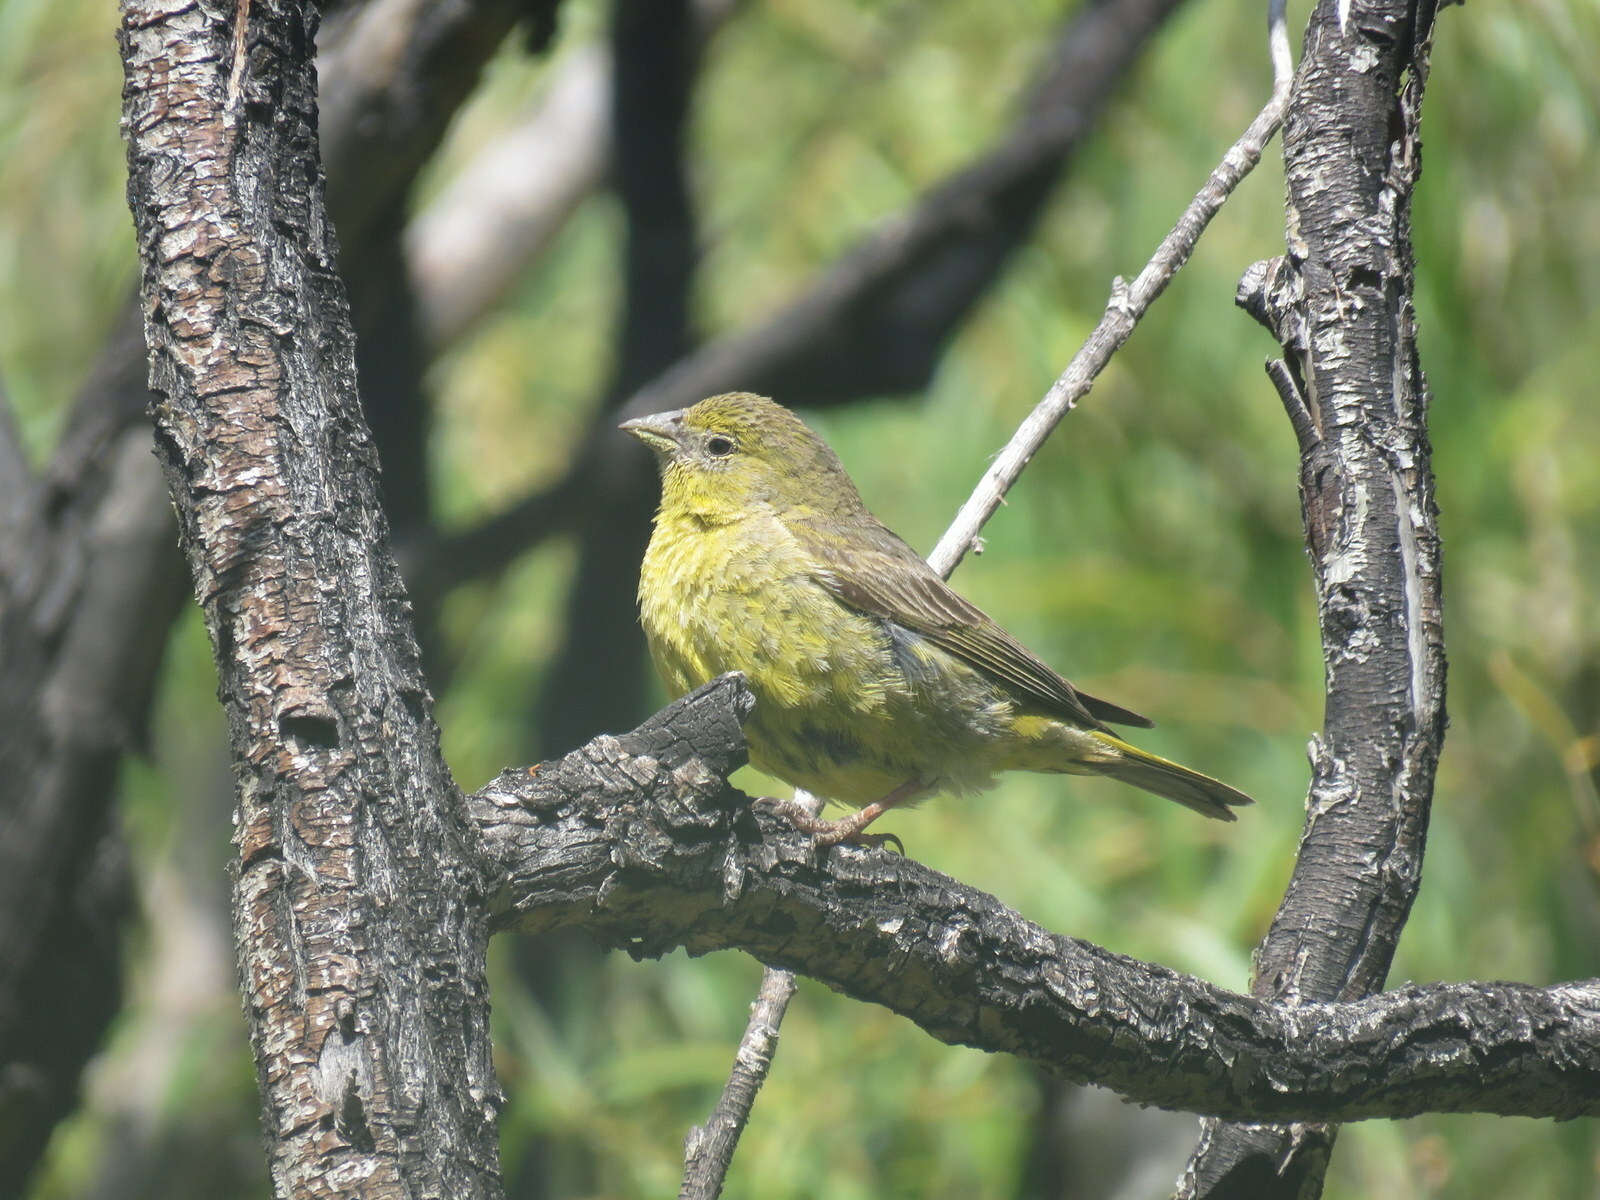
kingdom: Animalia
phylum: Chordata
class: Aves
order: Passeriformes
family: Thraupidae
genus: Sicalis
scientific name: Sicalis olivascens
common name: Greenish yellow finch
